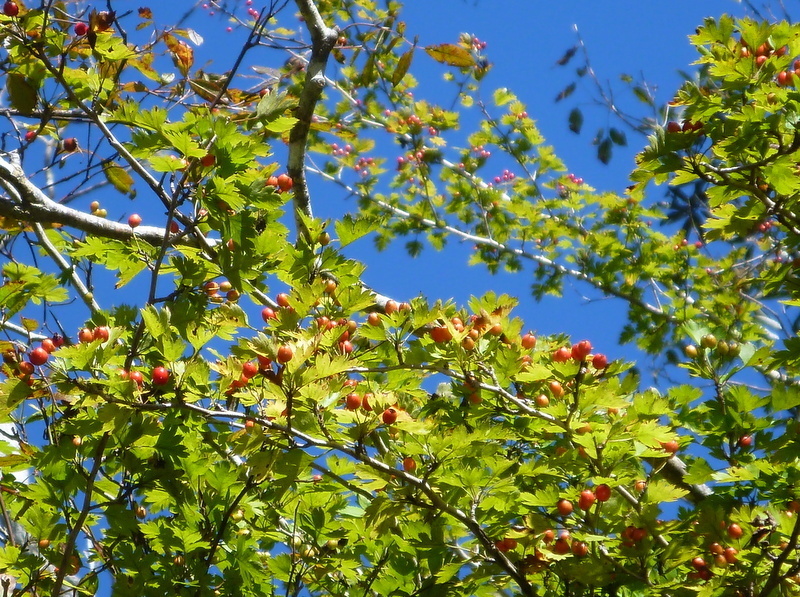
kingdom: Plantae
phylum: Tracheophyta
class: Magnoliopsida
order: Rosales
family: Rosaceae
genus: Crataegus
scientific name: Crataegus marshallii
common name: Parsley-hawthorn
